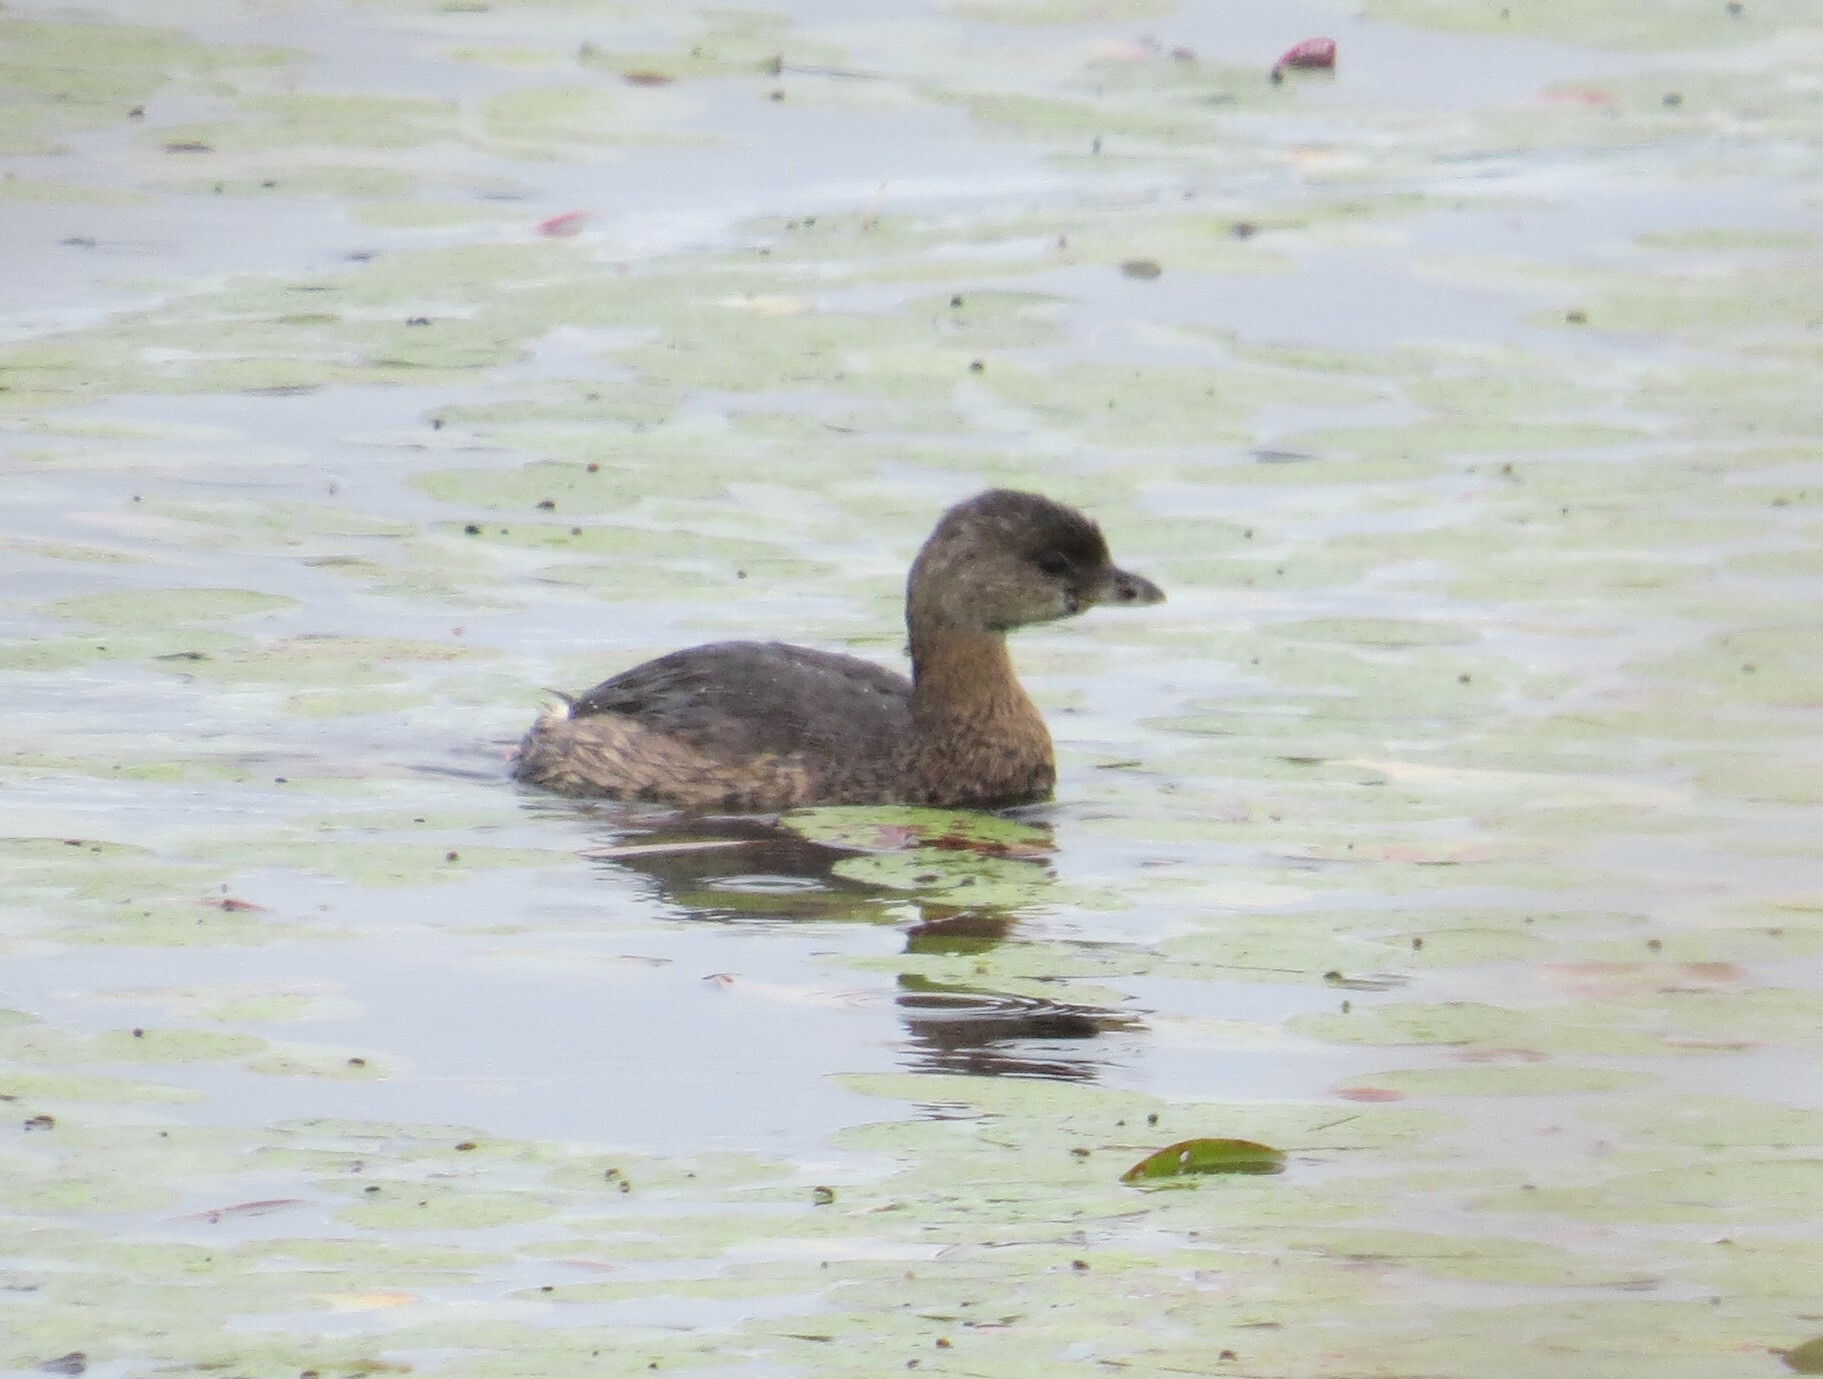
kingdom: Animalia
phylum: Chordata
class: Aves
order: Podicipediformes
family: Podicipedidae
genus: Podilymbus
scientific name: Podilymbus podiceps
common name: Pied-billed grebe
